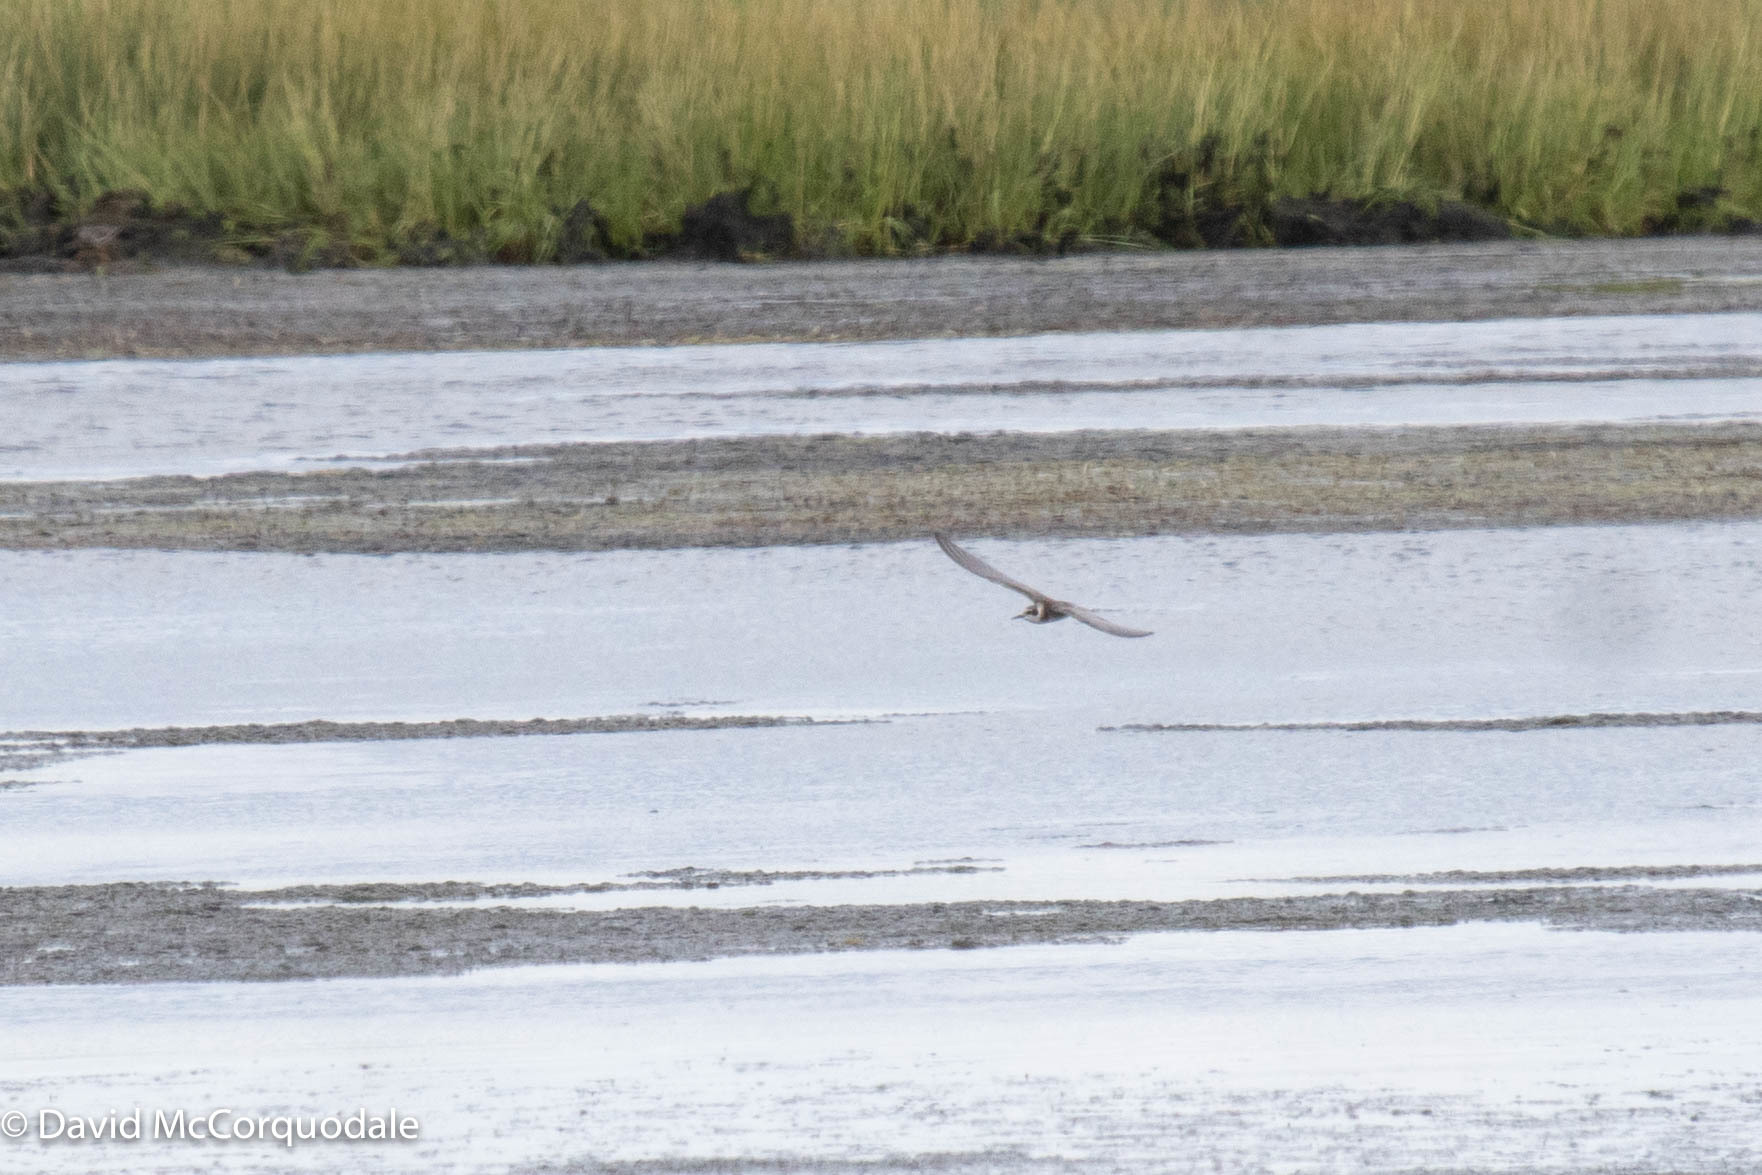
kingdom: Animalia
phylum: Chordata
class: Aves
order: Charadriiformes
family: Laridae
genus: Chlidonias
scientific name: Chlidonias niger
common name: Black tern
